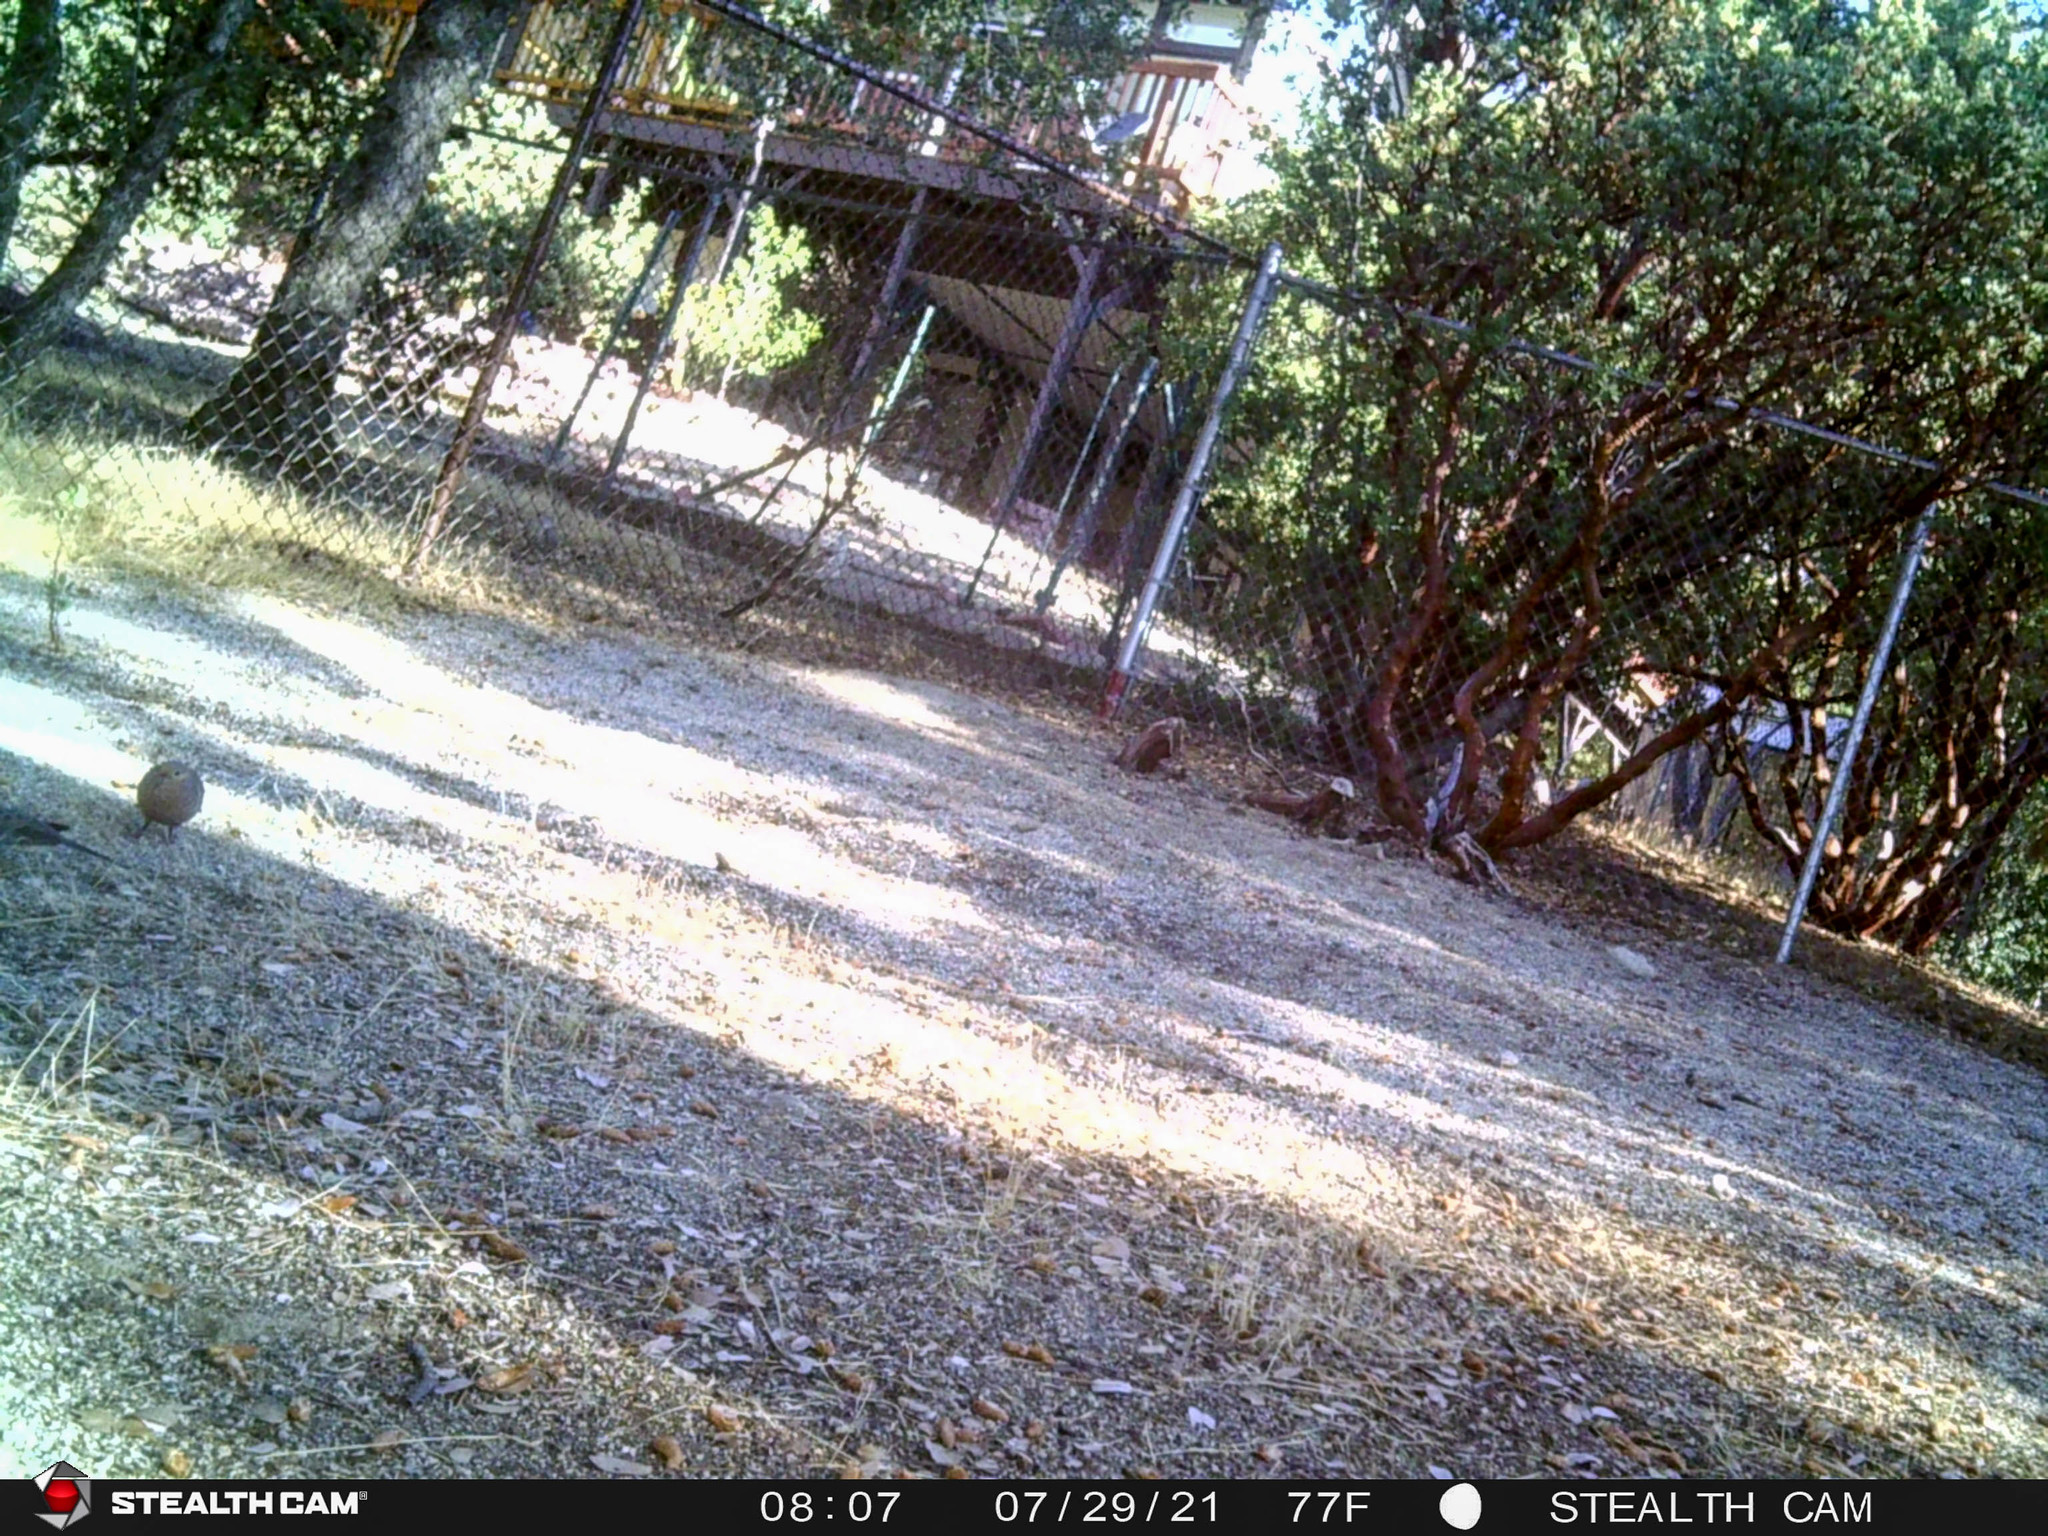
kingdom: Animalia
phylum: Chordata
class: Aves
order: Columbiformes
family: Columbidae
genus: Zenaida
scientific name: Zenaida macroura
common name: Mourning dove
